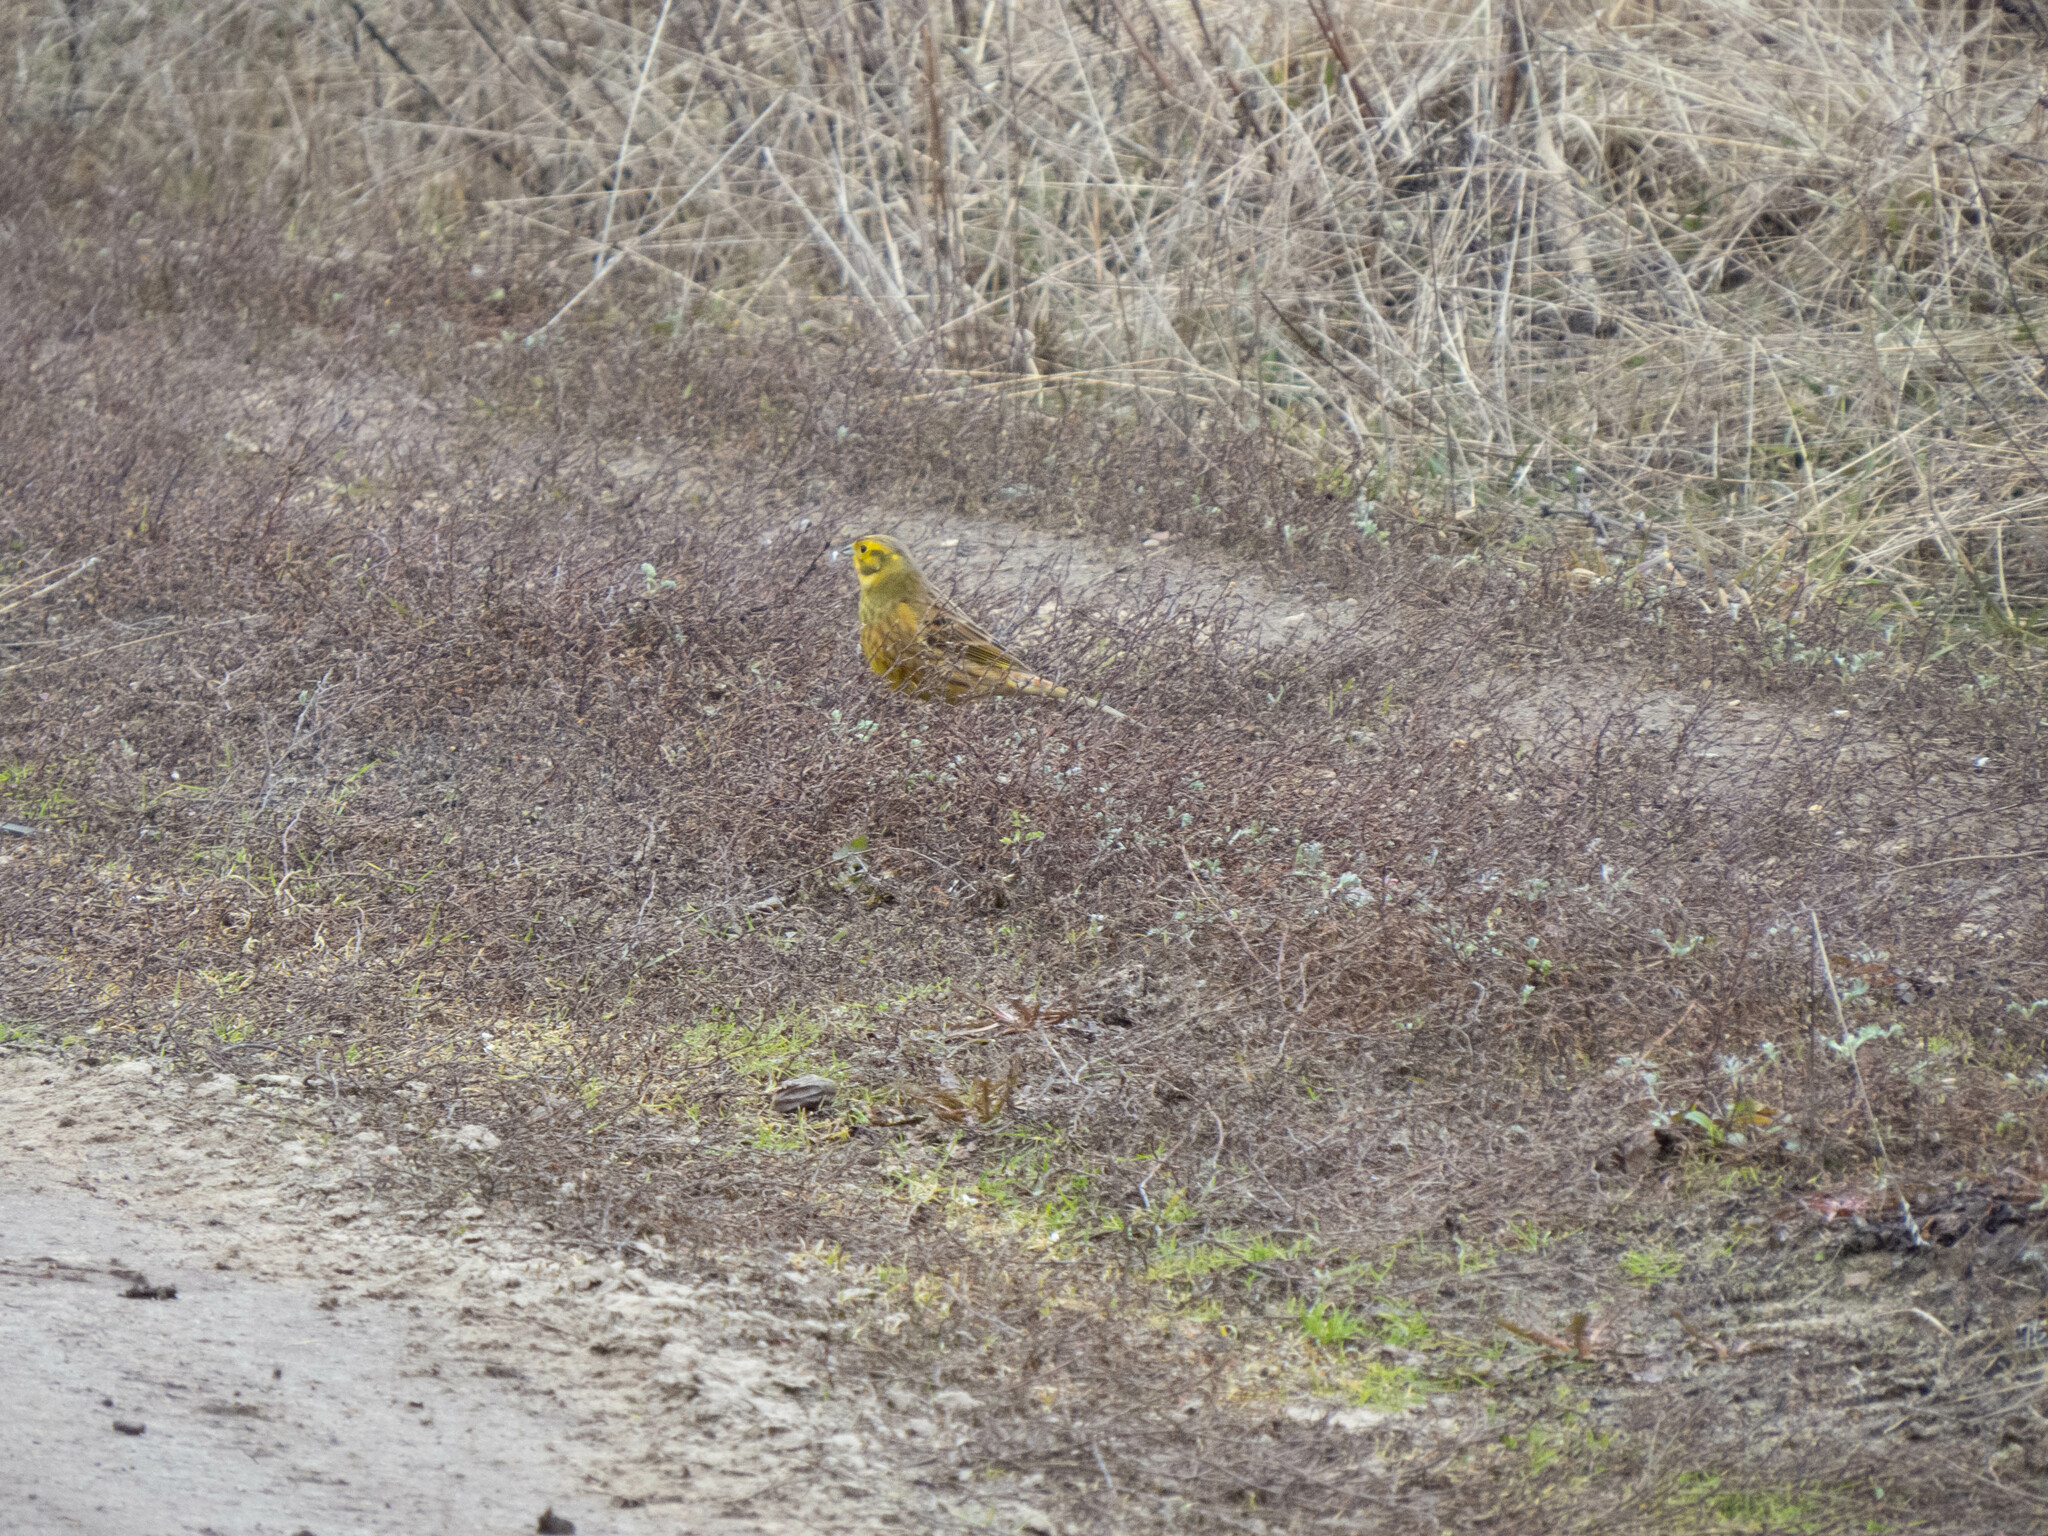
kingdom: Animalia
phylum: Chordata
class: Aves
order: Passeriformes
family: Emberizidae
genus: Emberiza
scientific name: Emberiza citrinella
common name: Yellowhammer
